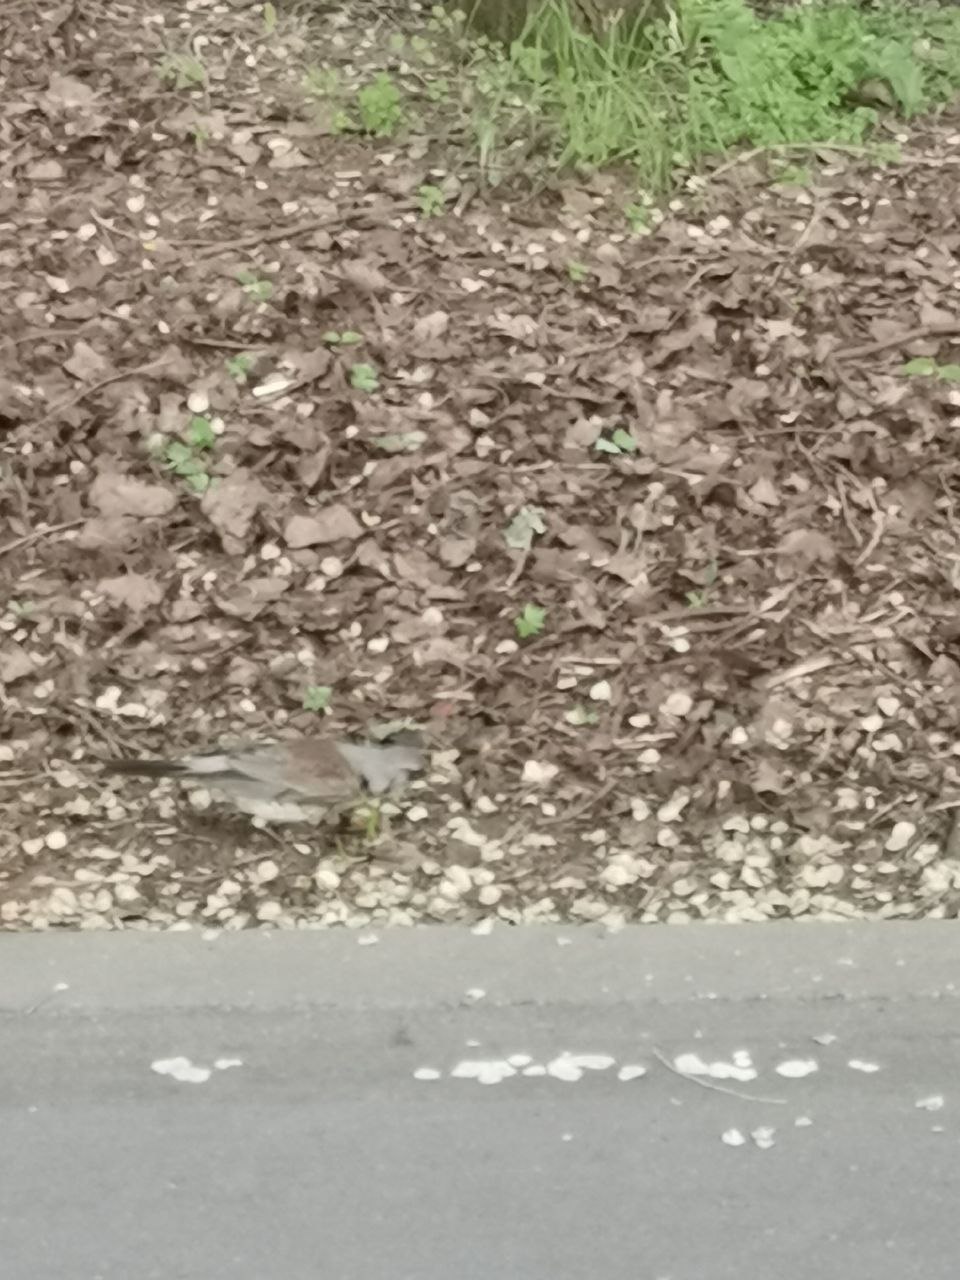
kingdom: Animalia
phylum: Chordata
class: Aves
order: Passeriformes
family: Turdidae
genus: Turdus
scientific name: Turdus pilaris
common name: Fieldfare
